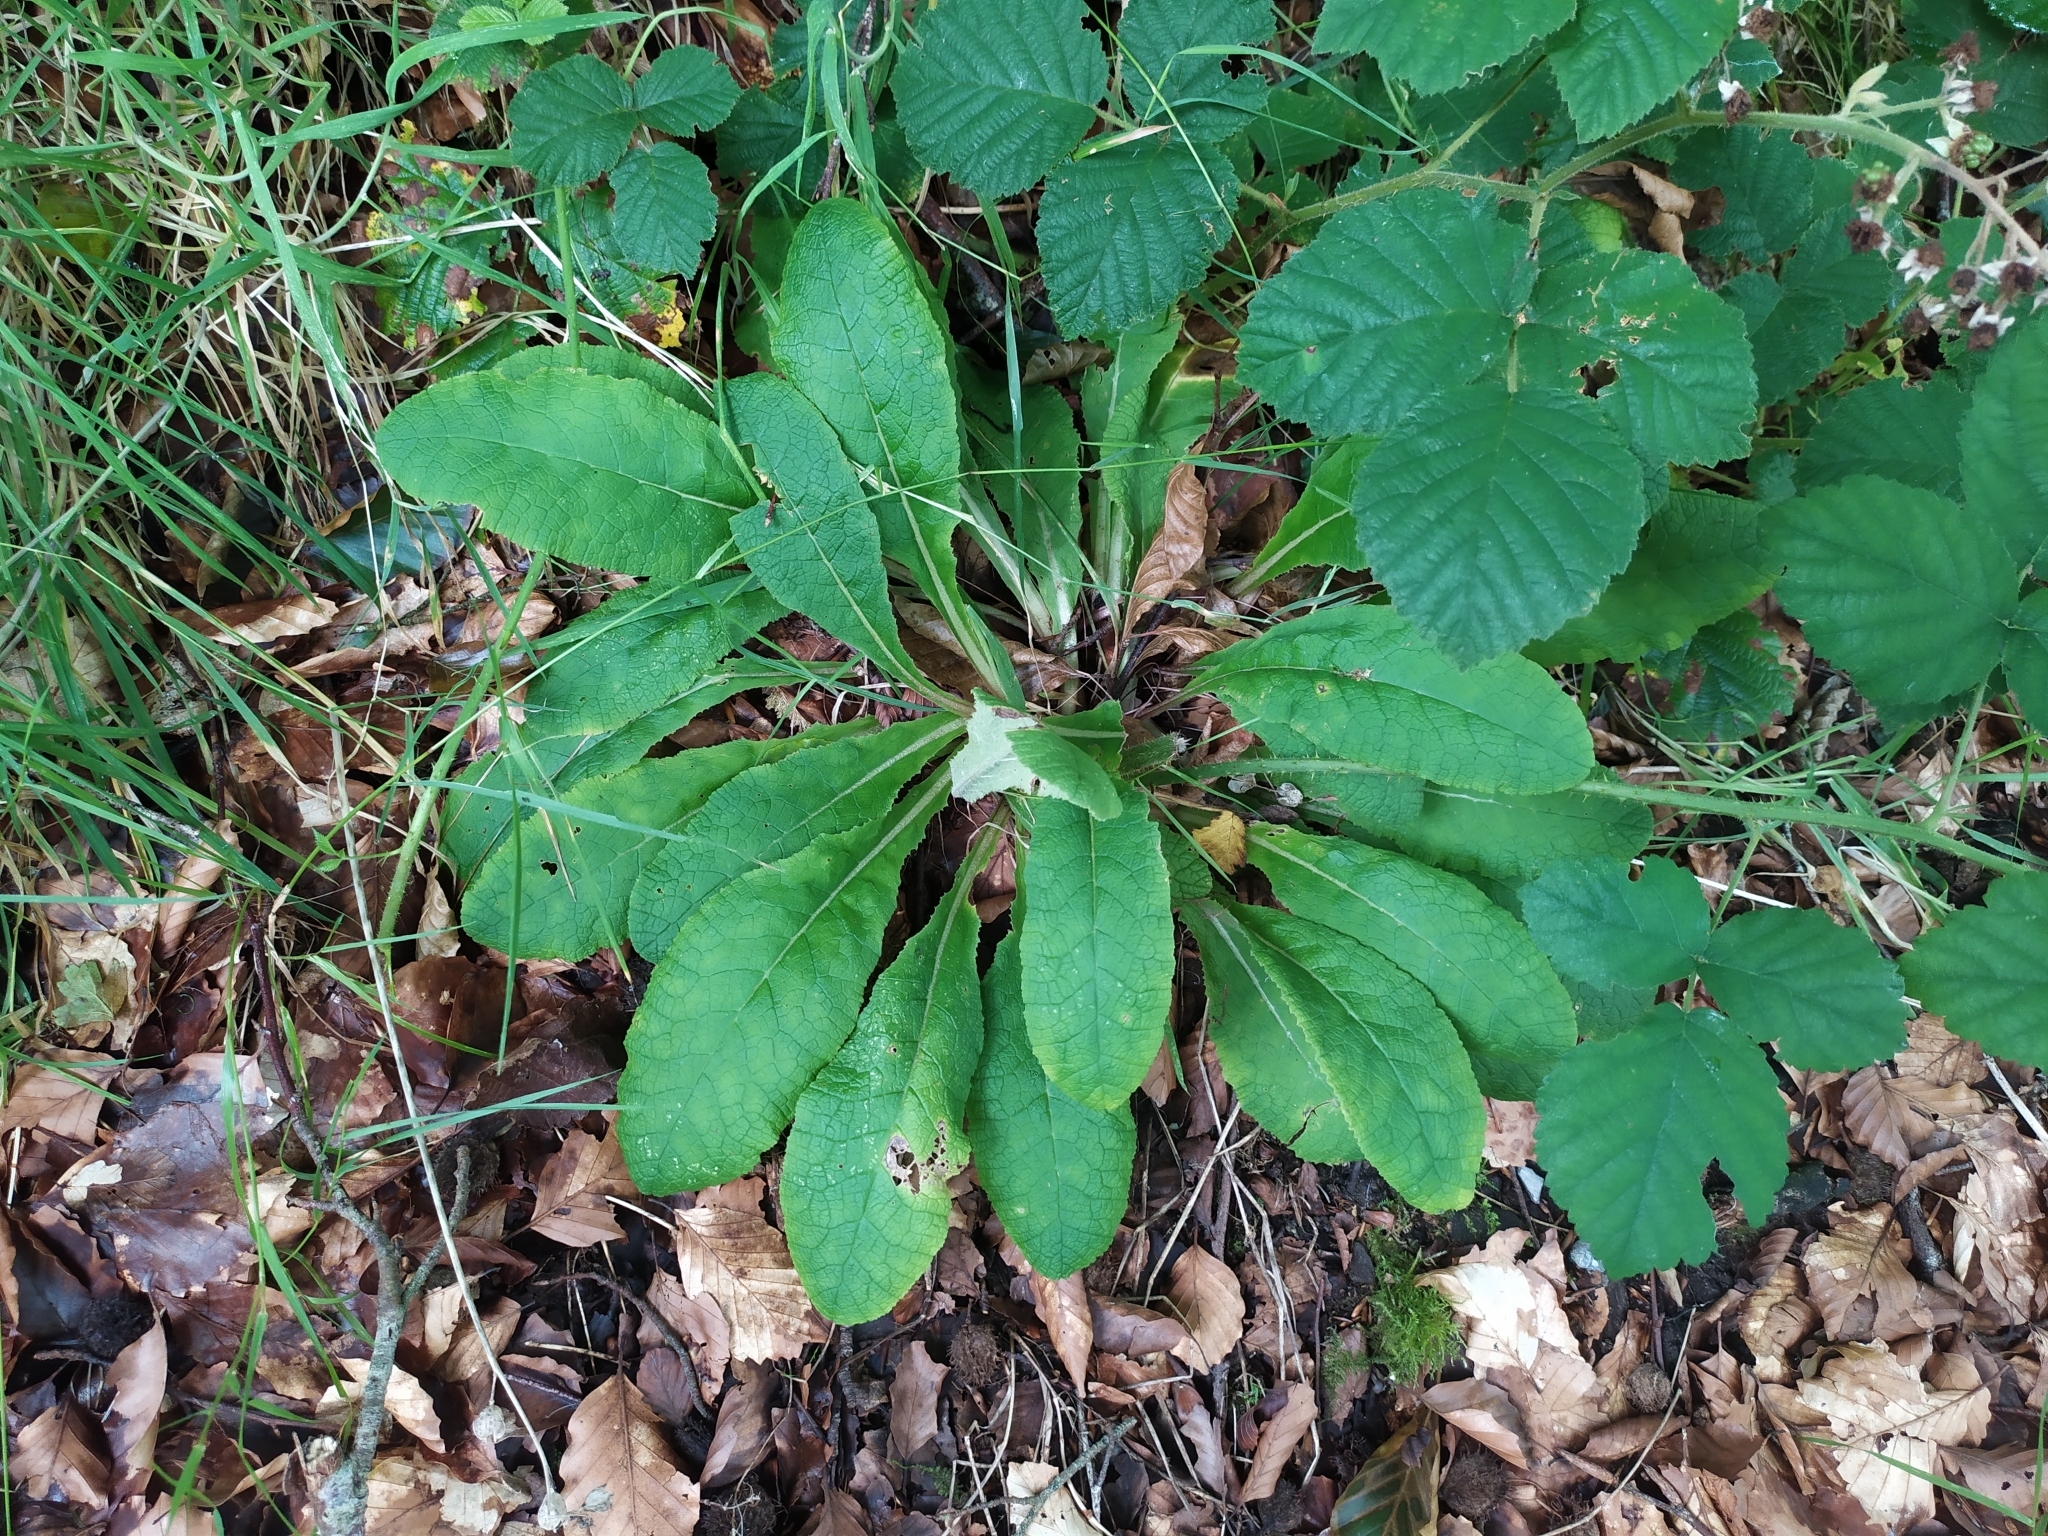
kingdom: Plantae
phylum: Tracheophyta
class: Magnoliopsida
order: Ericales
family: Primulaceae
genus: Primula
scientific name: Primula vulgaris
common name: Primrose
